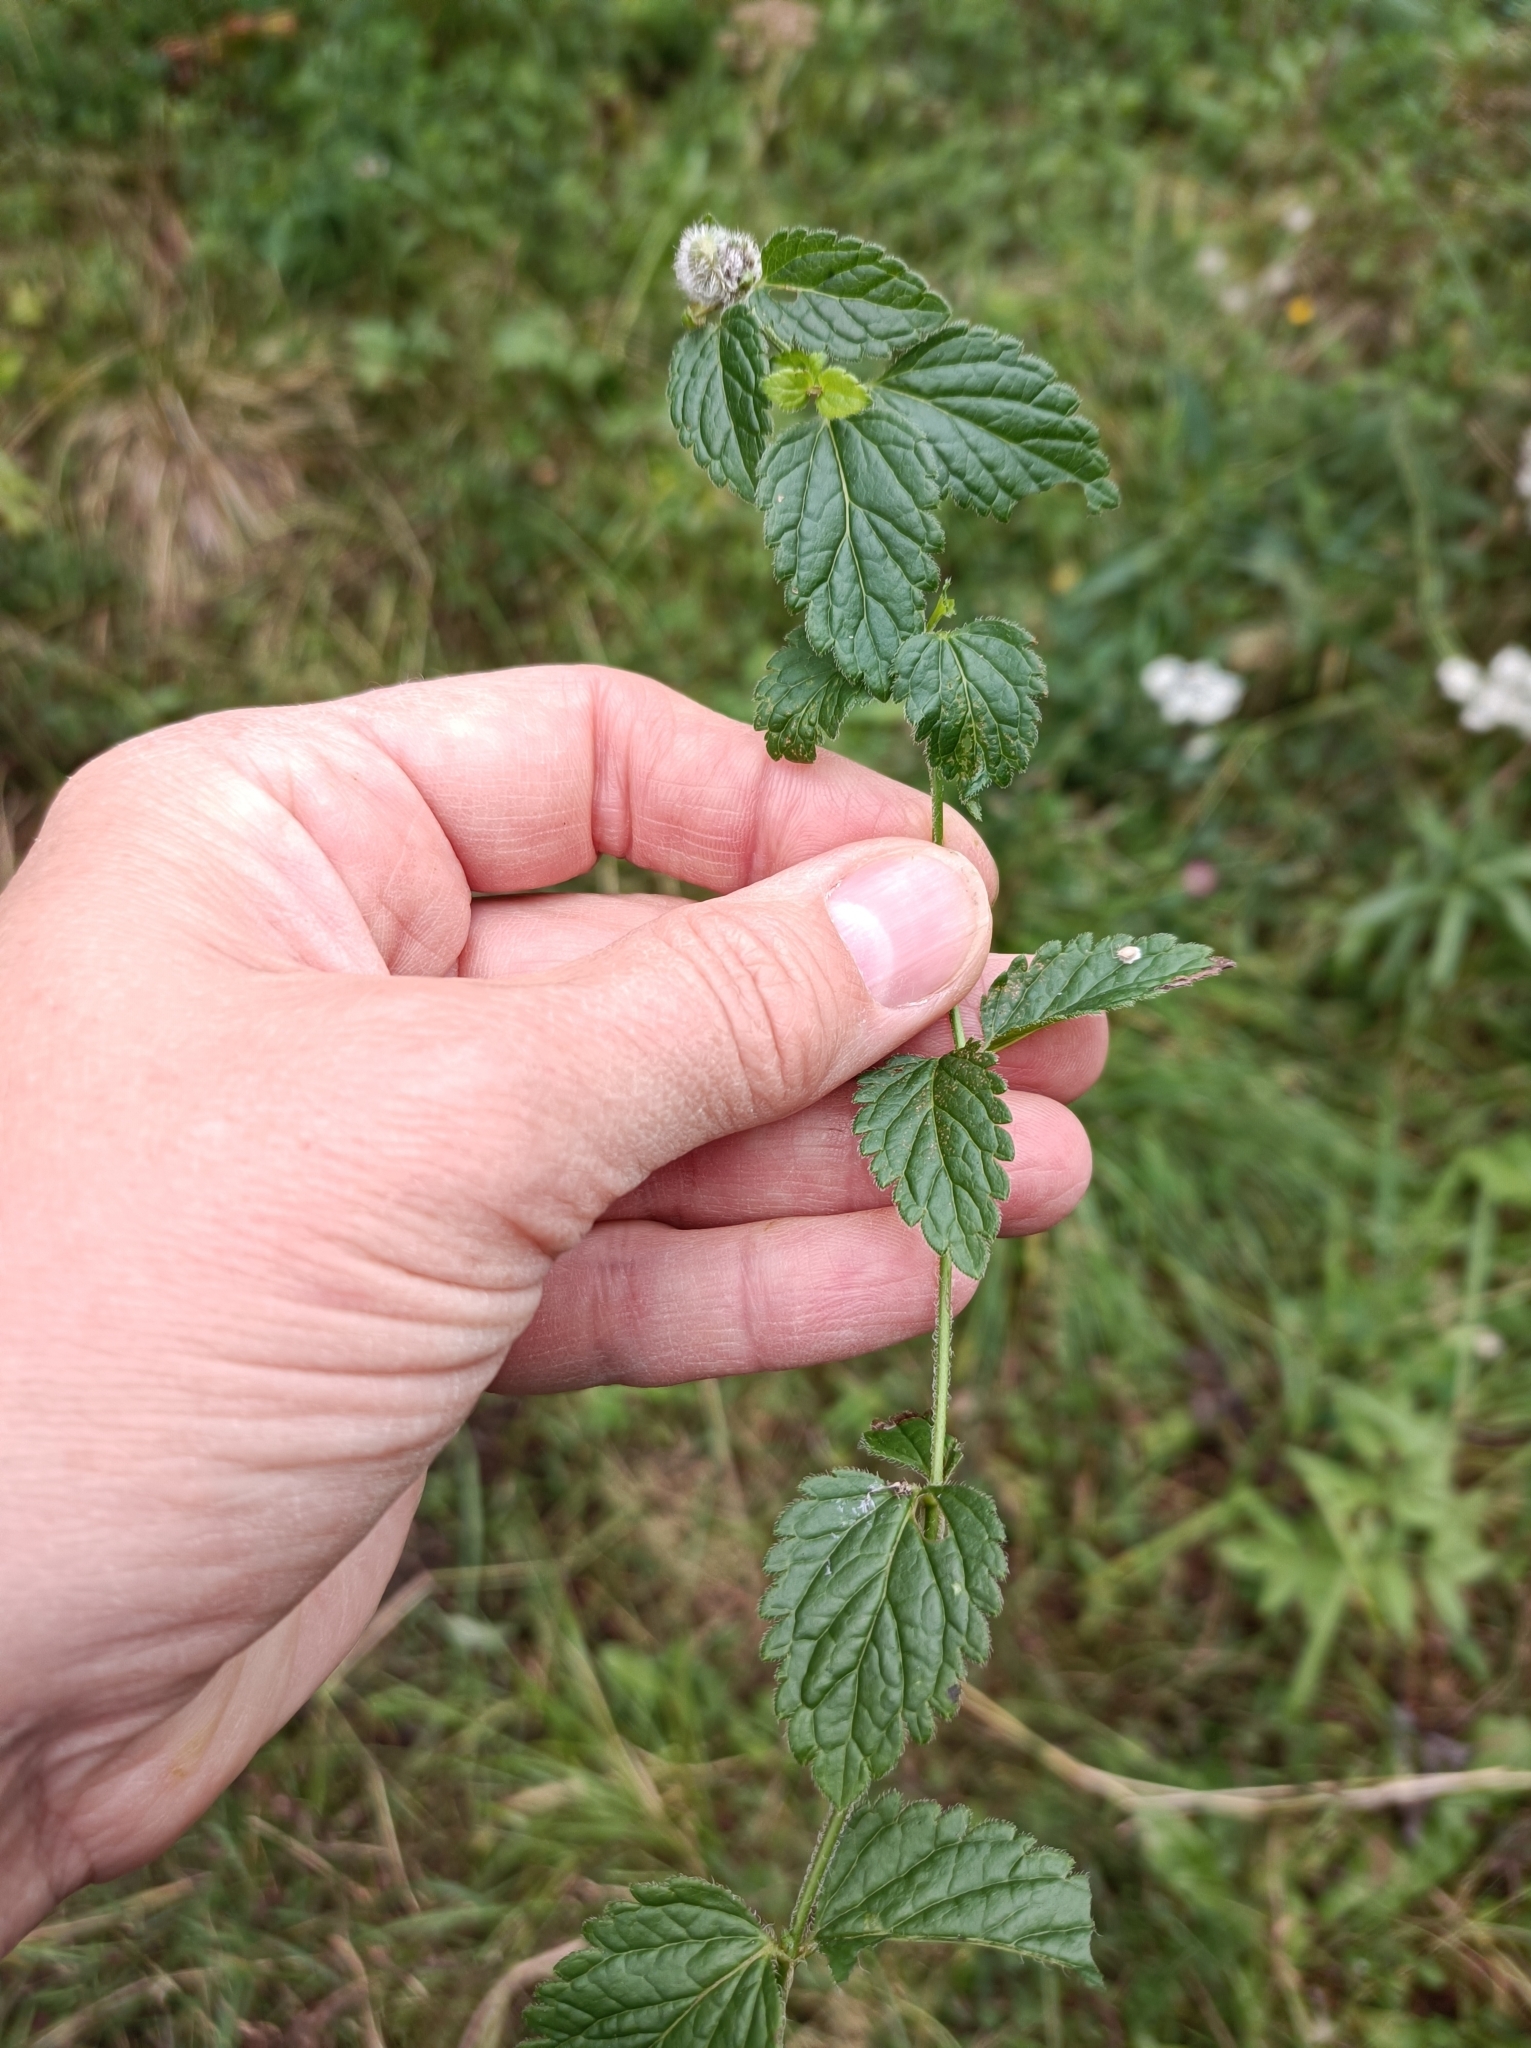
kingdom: Animalia
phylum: Arthropoda
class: Insecta
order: Diptera
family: Cecidomyiidae
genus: Jaapiella
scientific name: Jaapiella veronicae
